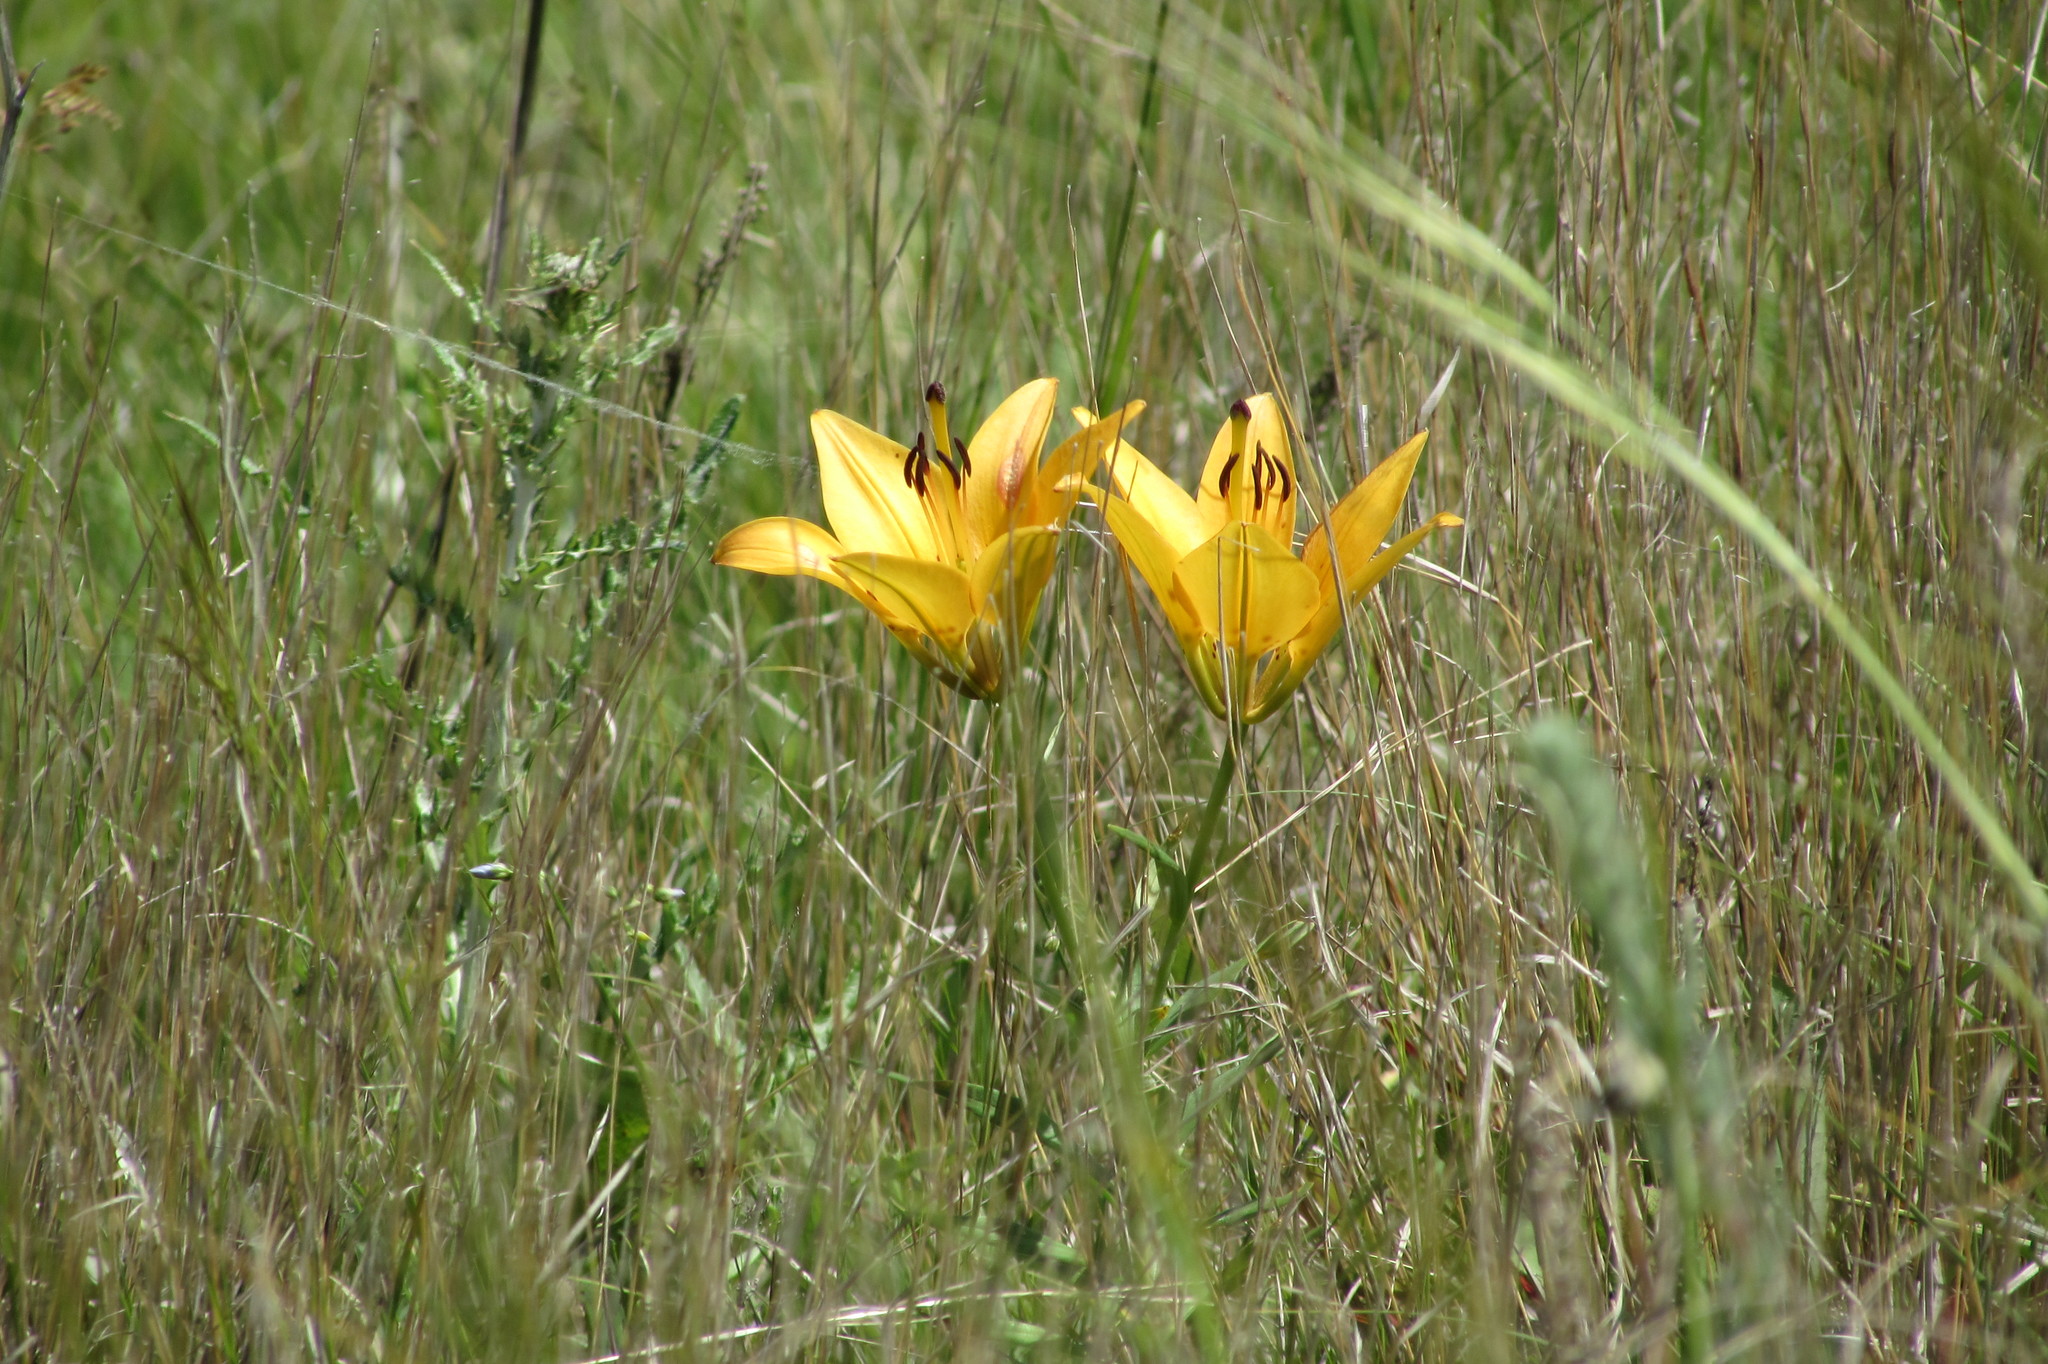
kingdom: Plantae
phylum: Tracheophyta
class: Liliopsida
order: Liliales
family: Liliaceae
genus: Lilium
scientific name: Lilium philadelphicum
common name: Red lily
